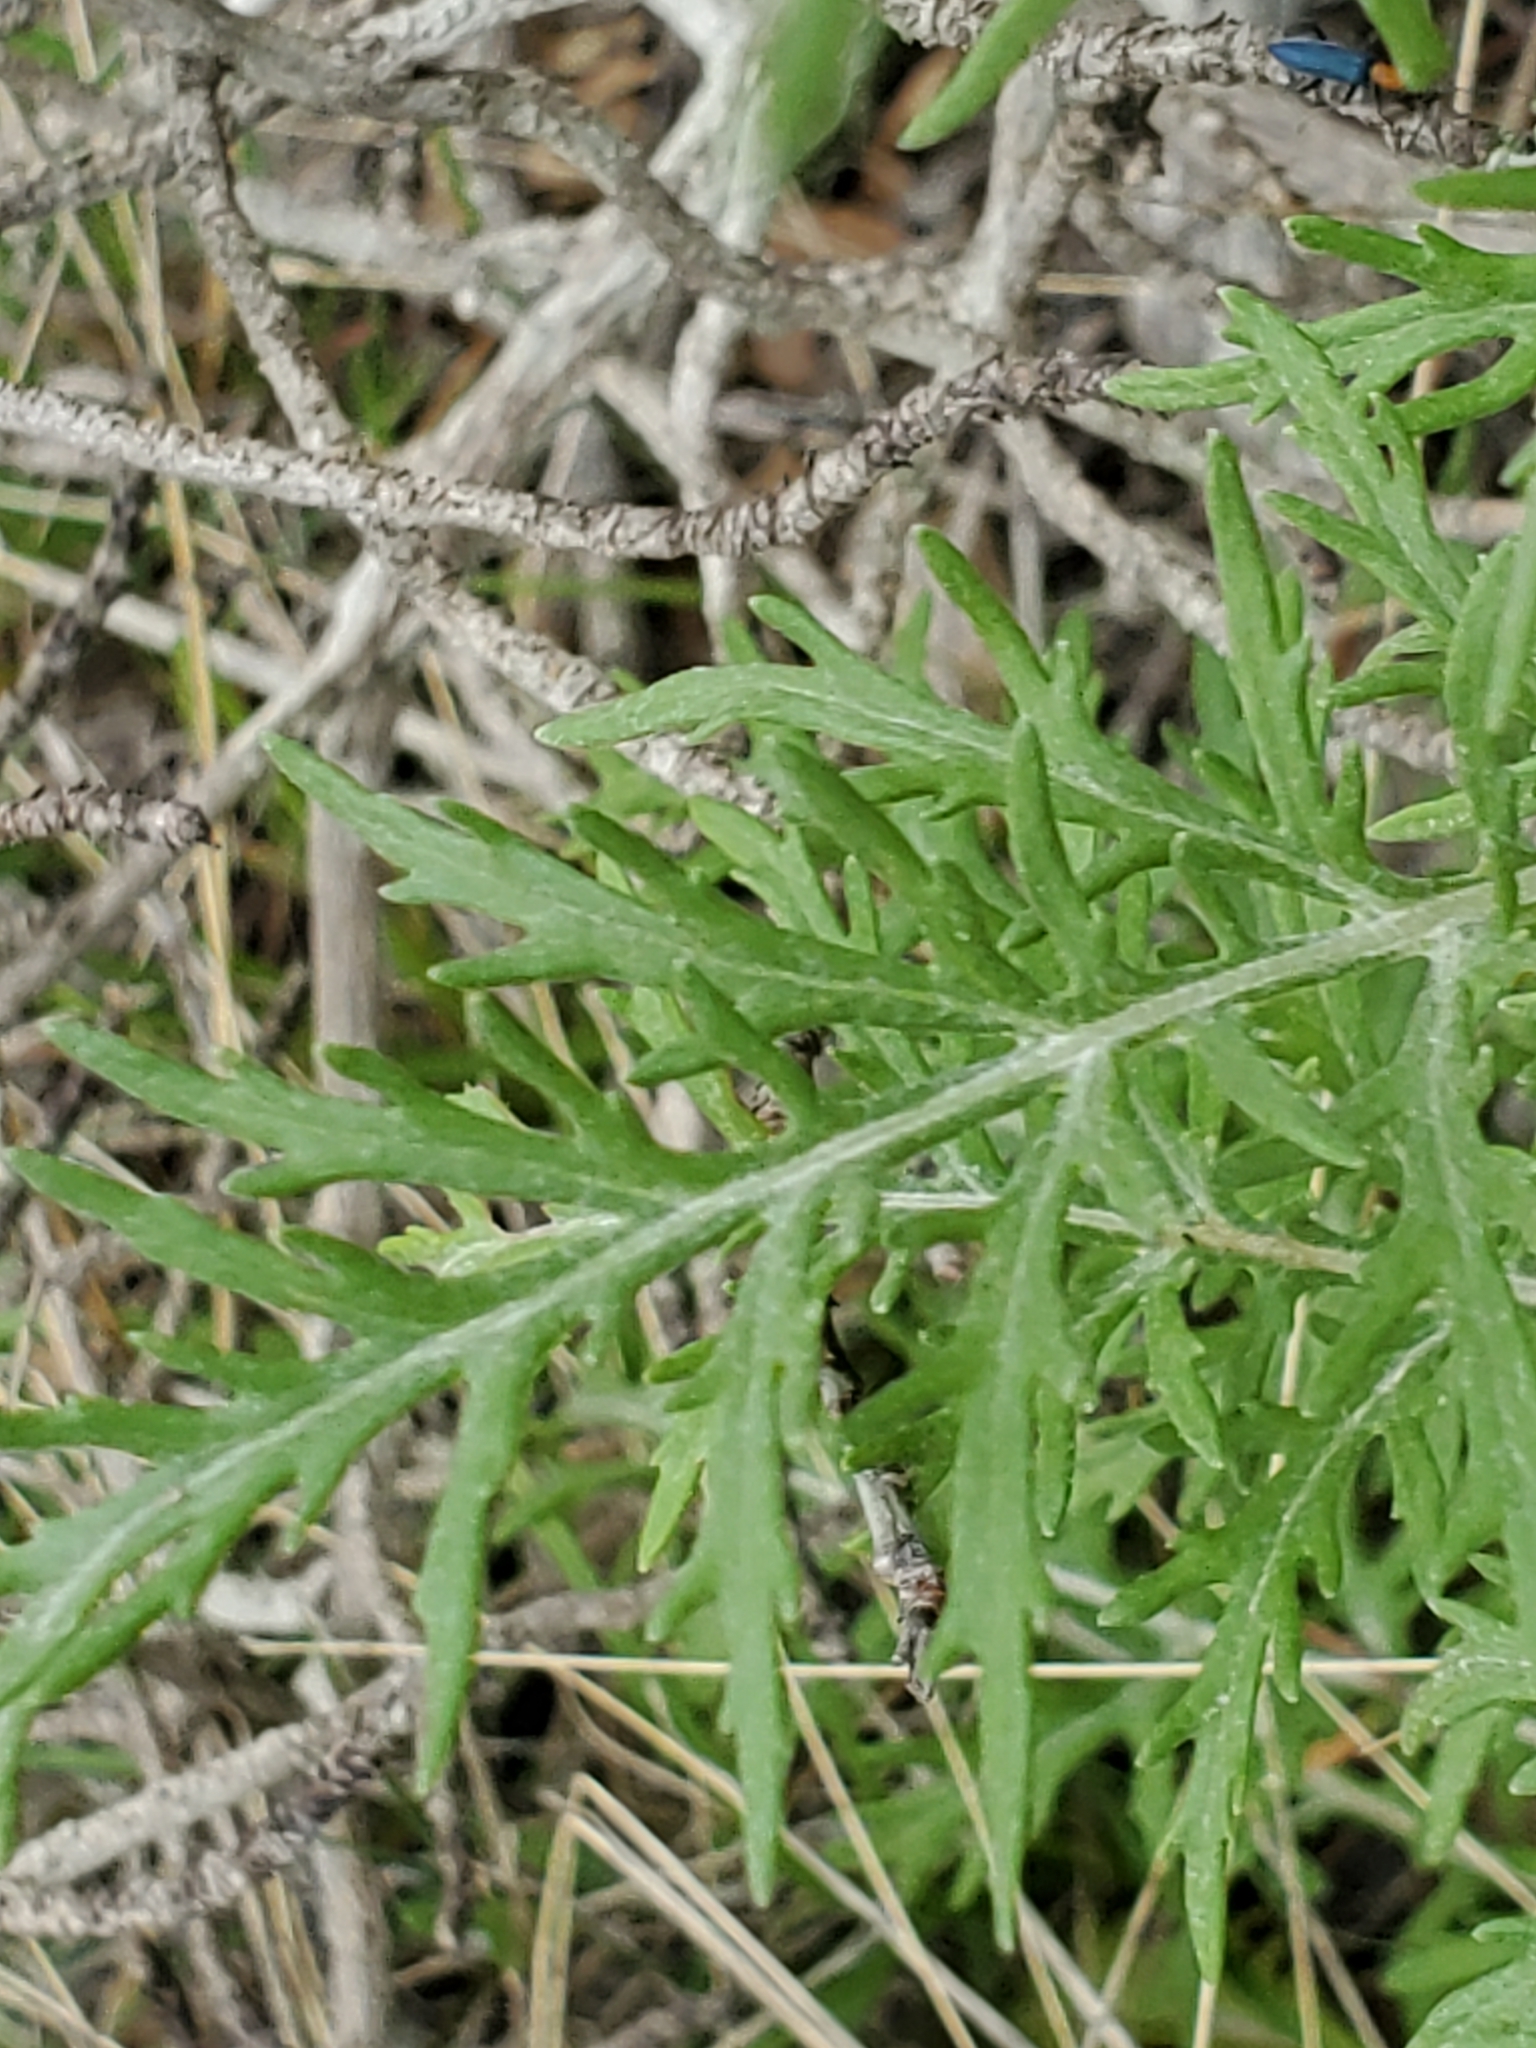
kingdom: Plantae
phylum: Tracheophyta
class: Magnoliopsida
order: Asterales
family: Asteraceae
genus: Hymenopappus
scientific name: Hymenopappus scabiosaeus
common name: Carolina woollywhite
